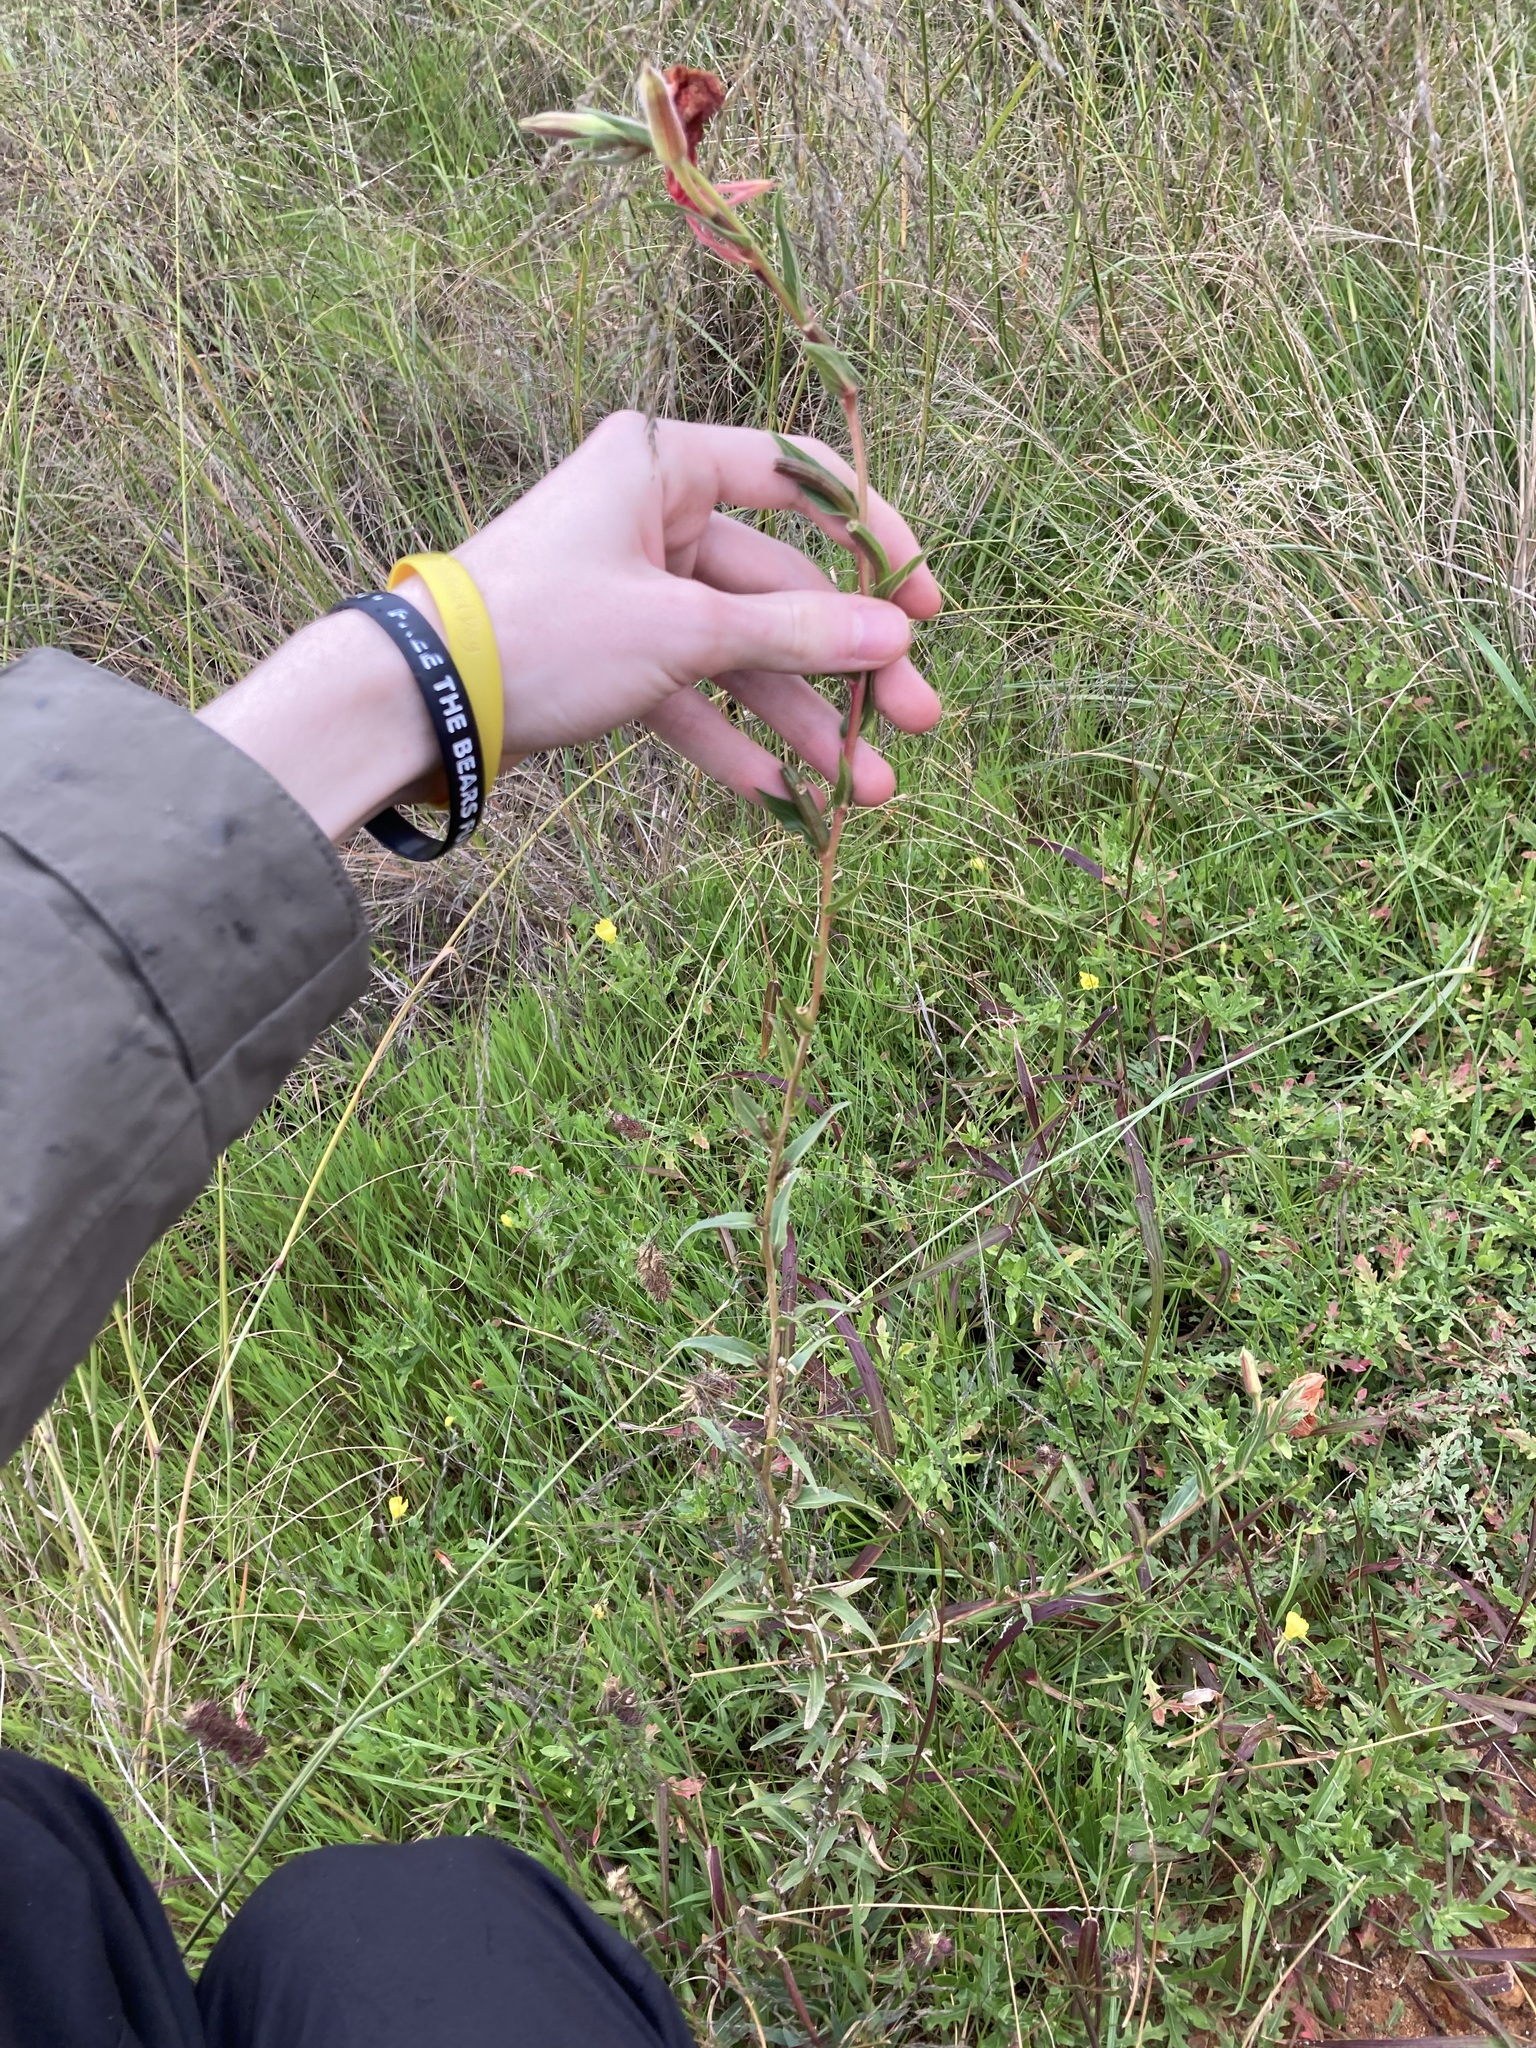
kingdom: Plantae
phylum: Tracheophyta
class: Magnoliopsida
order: Myrtales
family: Onagraceae
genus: Oenothera
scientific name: Oenothera stricta
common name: Fragrant evening-primrose
